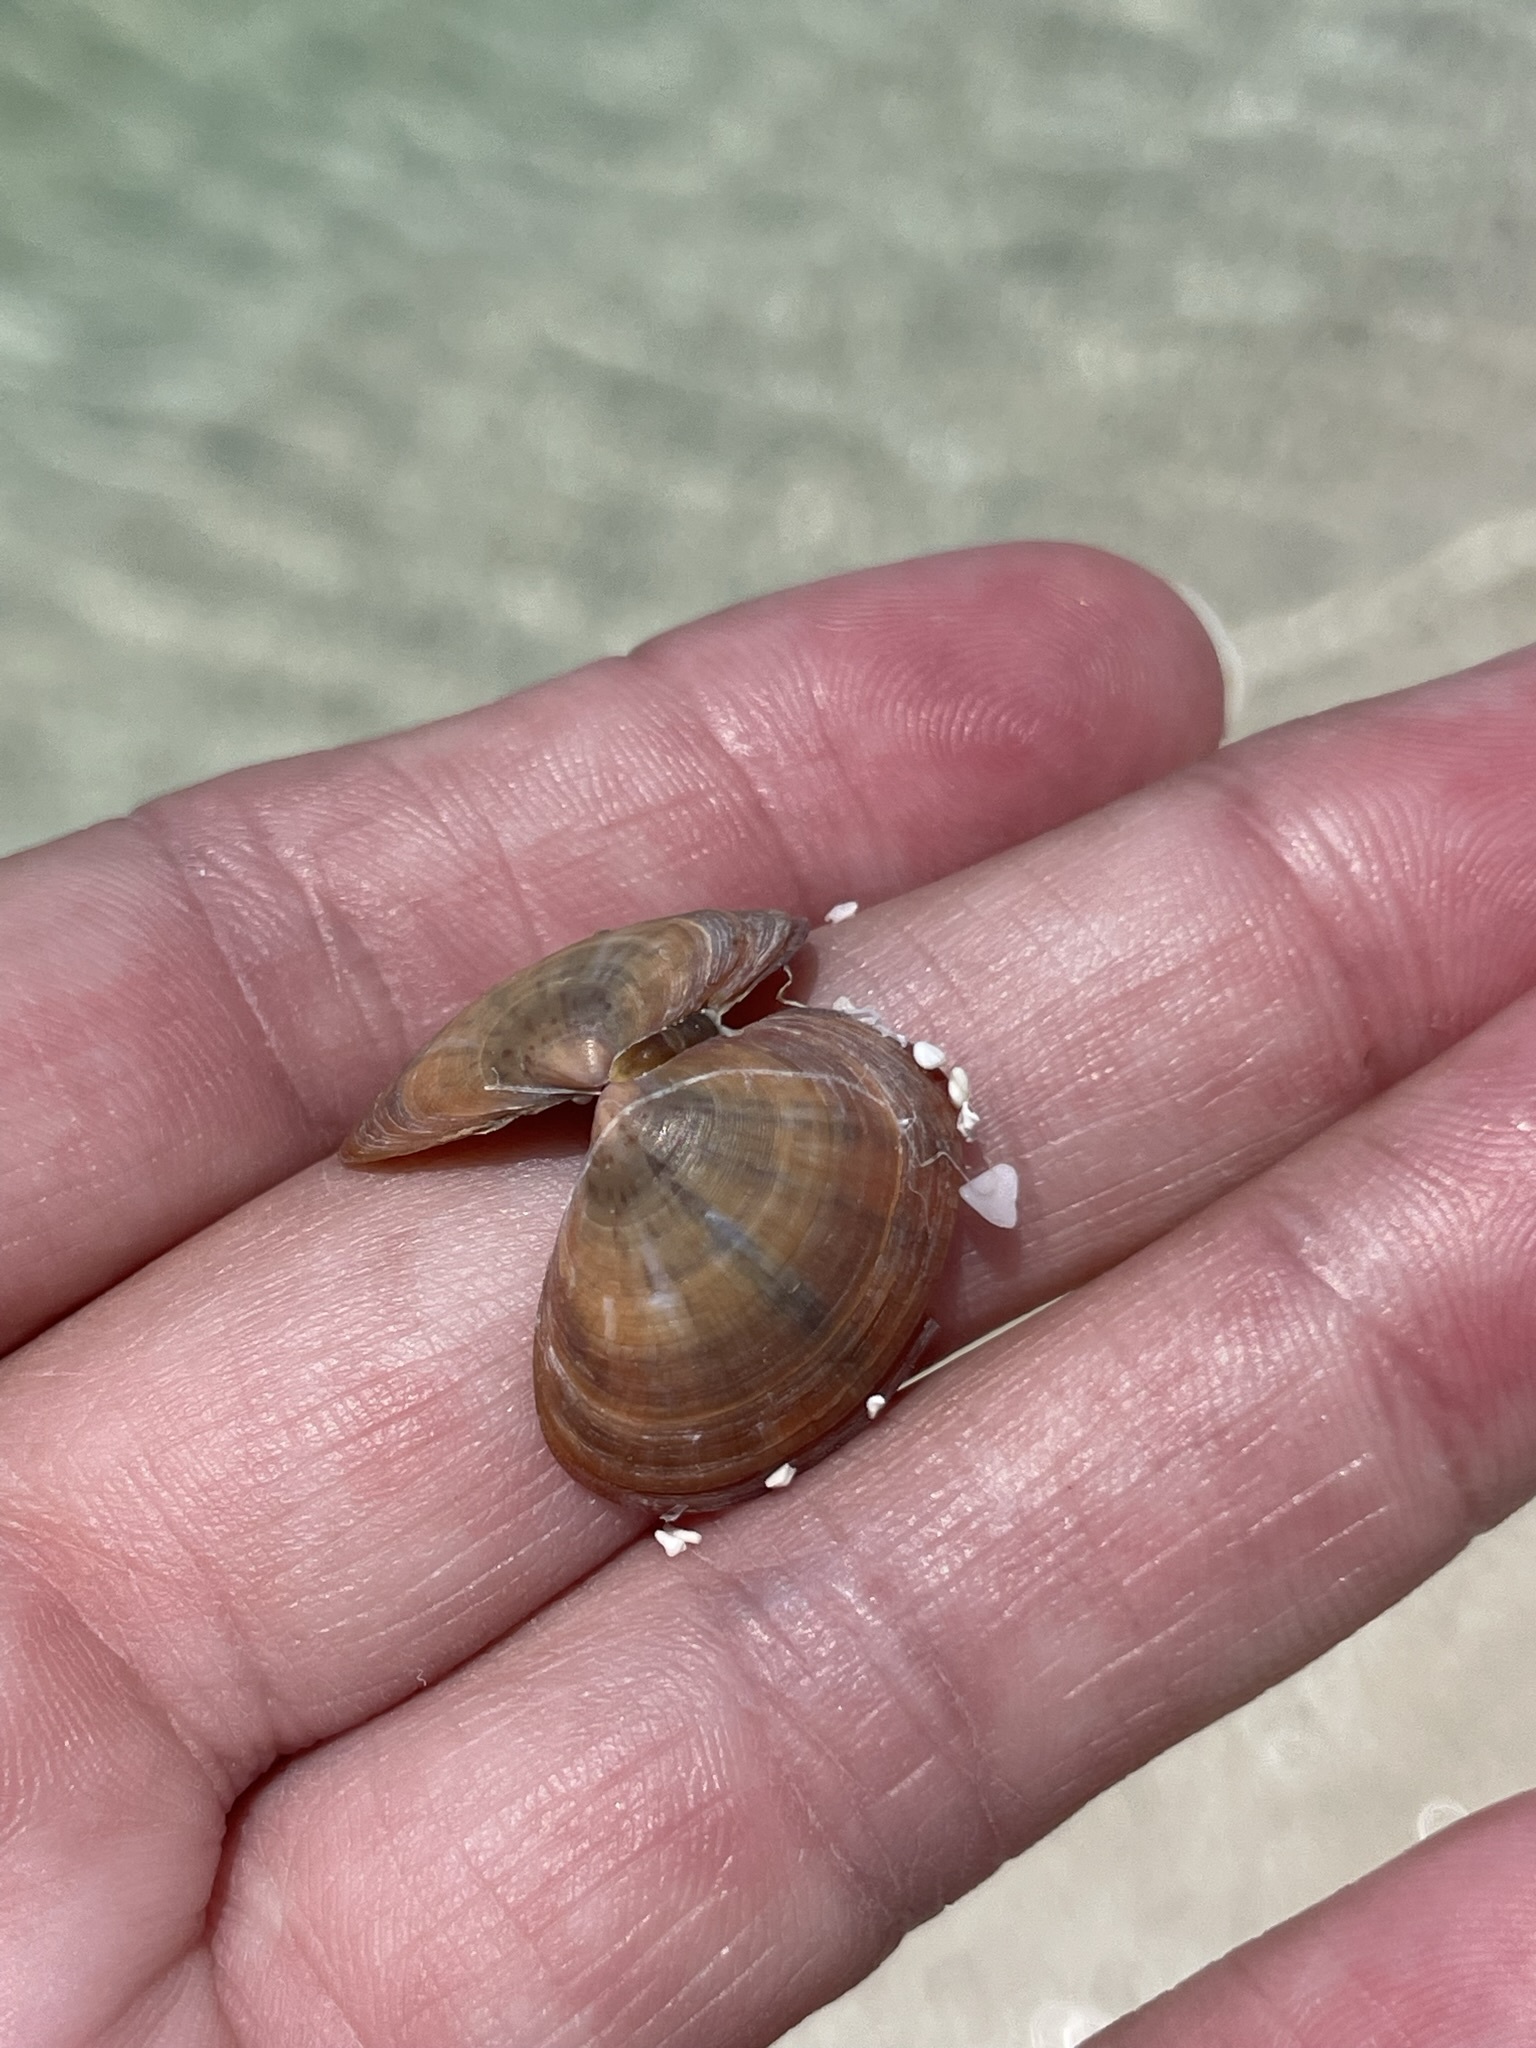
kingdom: Animalia
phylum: Mollusca
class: Bivalvia
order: Cardiida
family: Psammobiidae
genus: Heterodonax
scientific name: Heterodonax pacificus
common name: Pacific false-bean clam
